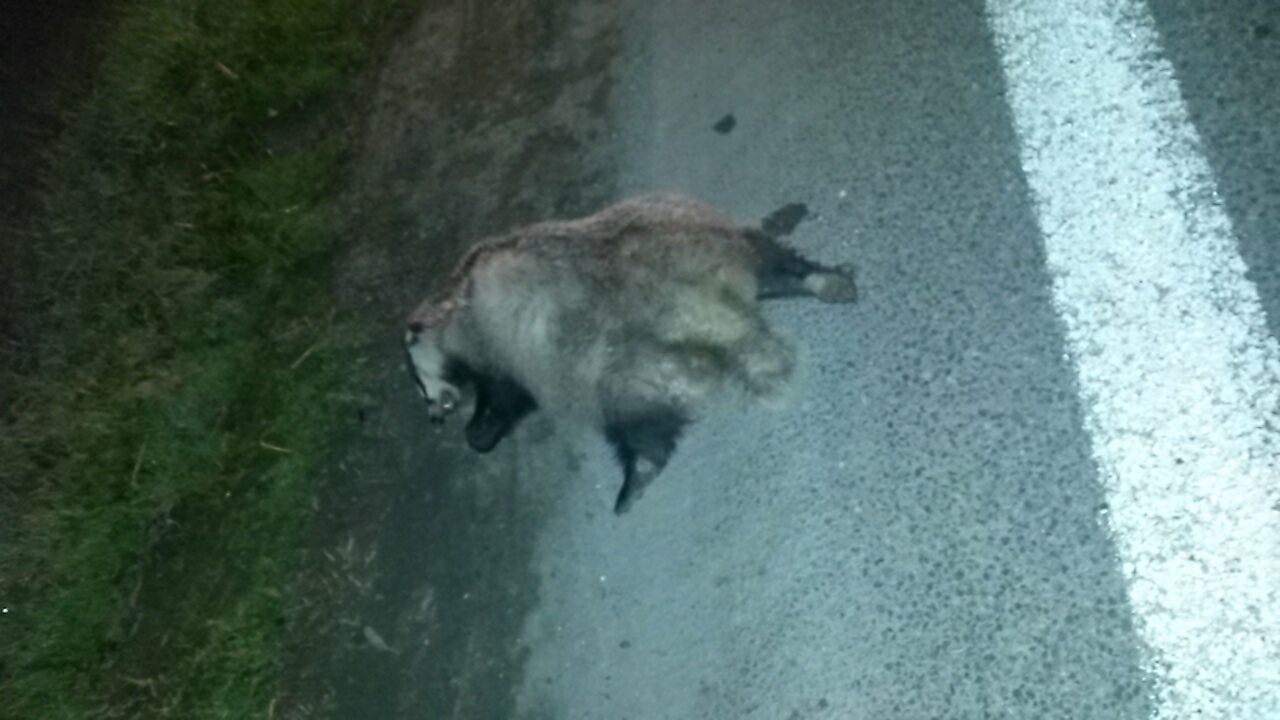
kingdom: Animalia
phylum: Chordata
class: Mammalia
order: Carnivora
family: Mustelidae
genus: Meles
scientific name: Meles meles
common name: Eurasian badger
